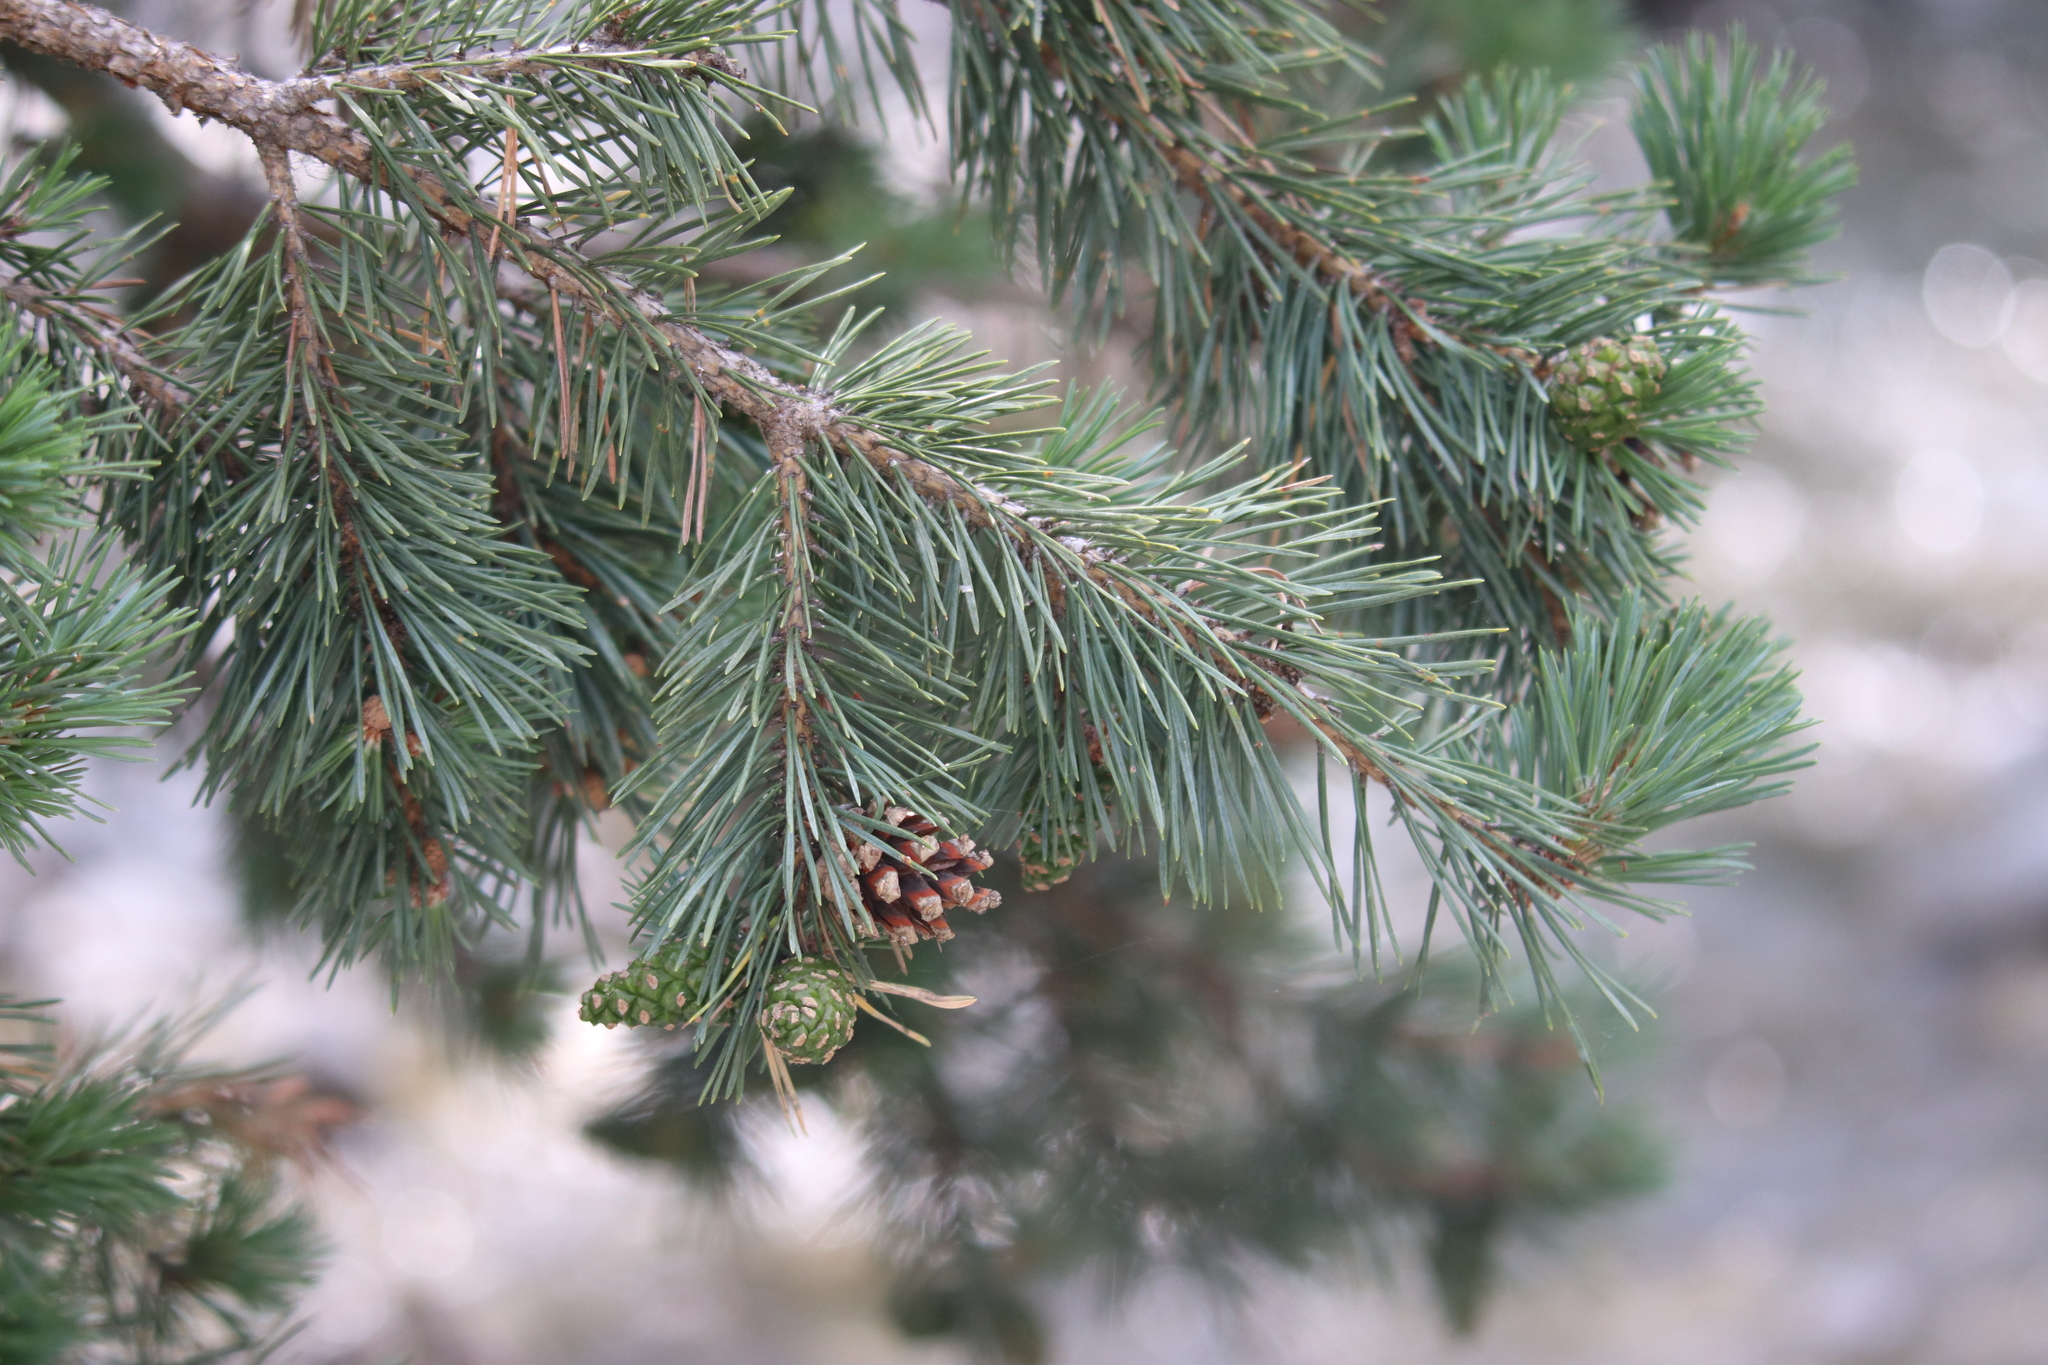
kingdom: Plantae
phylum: Tracheophyta
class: Pinopsida
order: Pinales
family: Pinaceae
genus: Pinus
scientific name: Pinus sylvestris
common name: Scots pine
